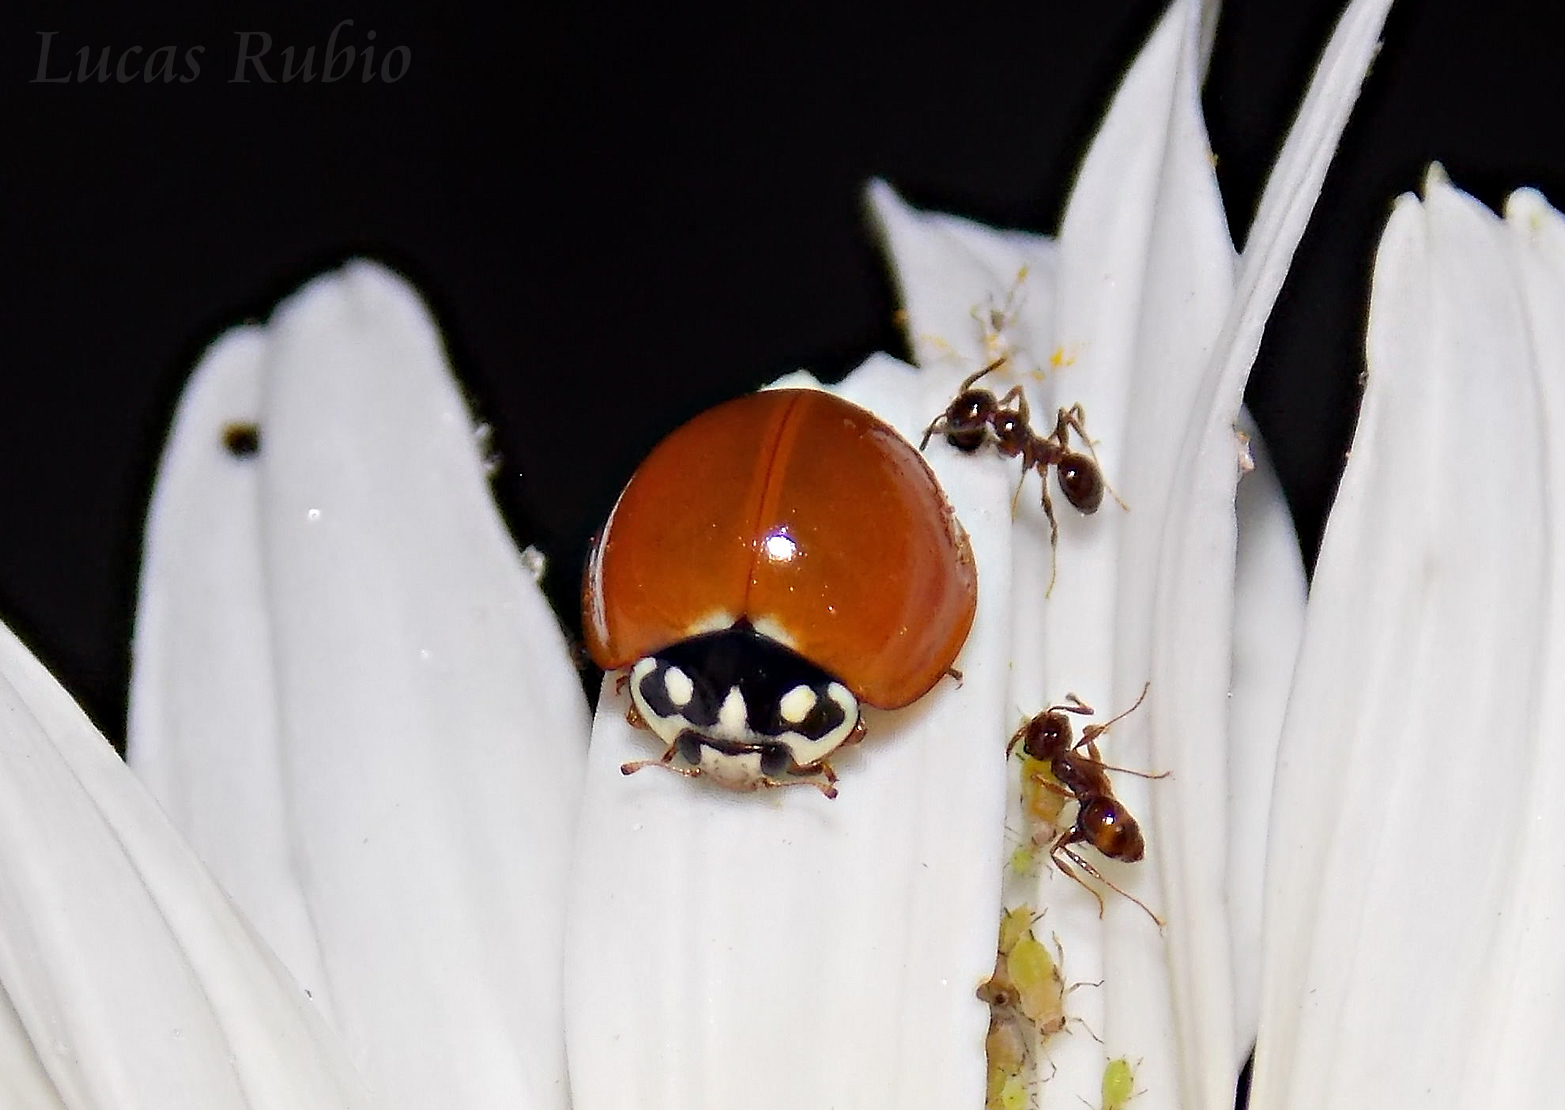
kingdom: Animalia
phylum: Arthropoda
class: Insecta
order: Coleoptera
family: Coccinellidae
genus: Cycloneda
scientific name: Cycloneda sanguinea
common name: Ladybird beetle
